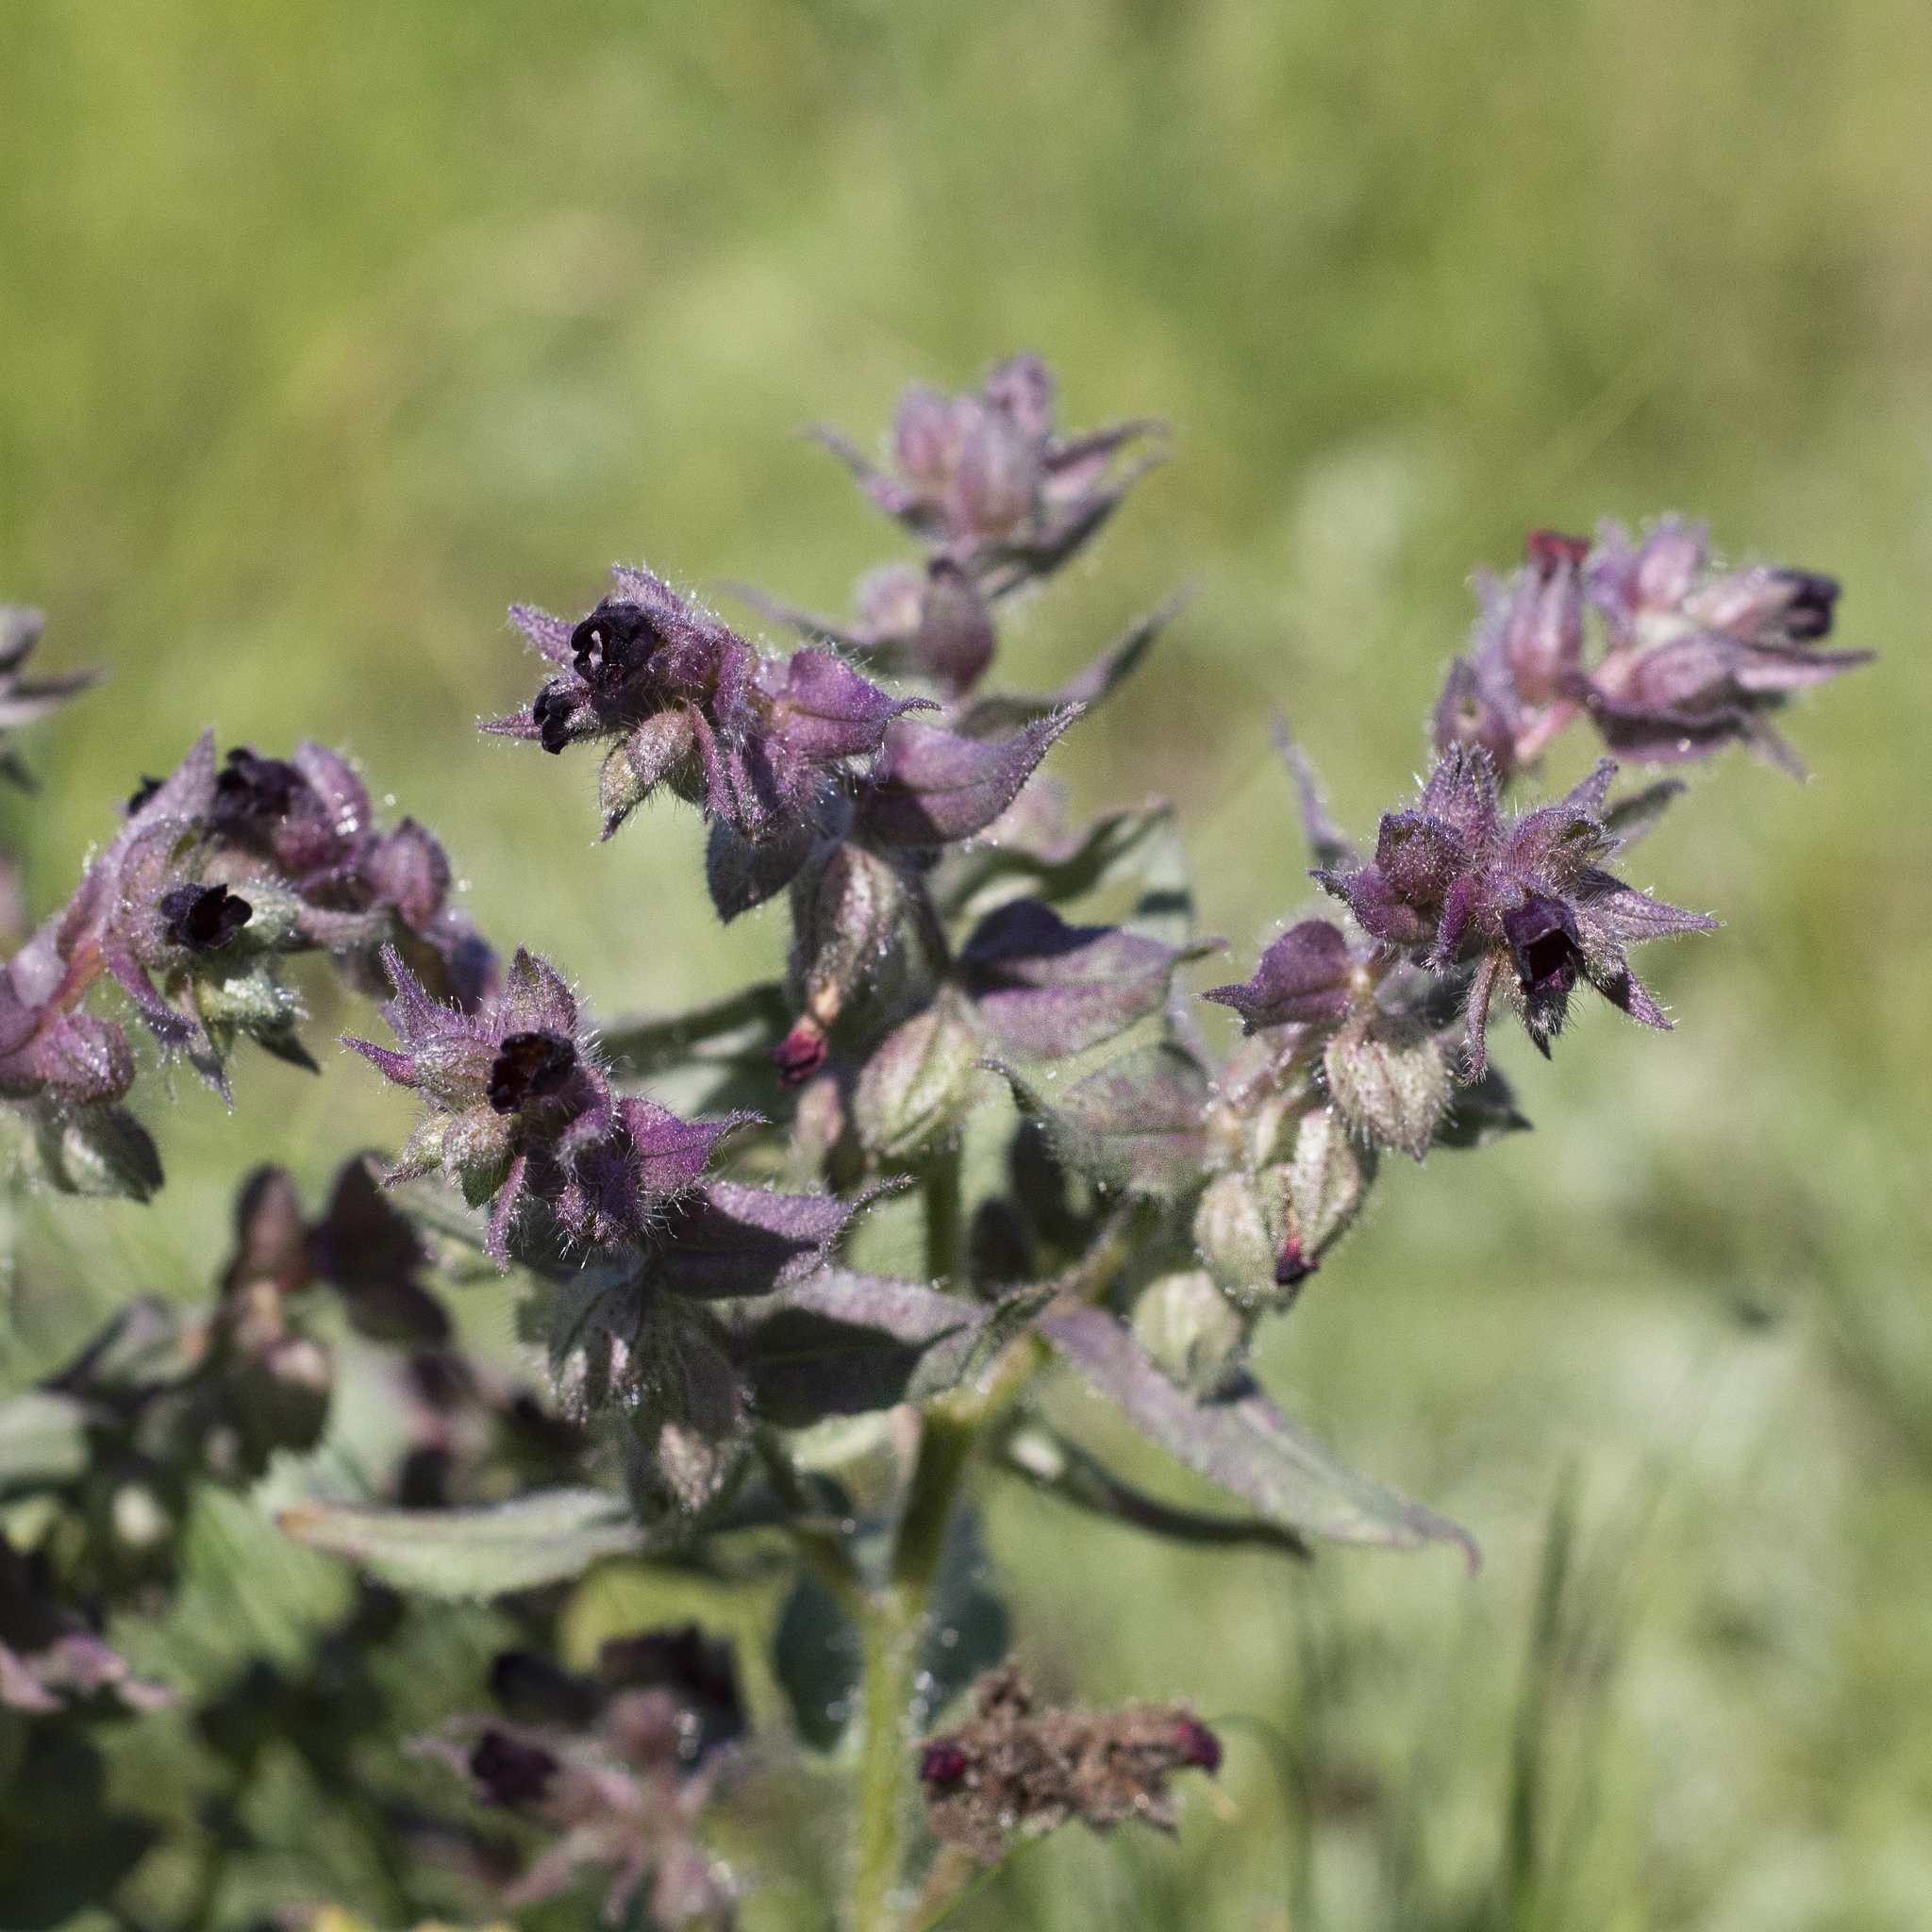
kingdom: Plantae
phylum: Tracheophyta
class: Magnoliopsida
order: Boraginales
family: Boraginaceae
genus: Nonea
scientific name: Nonea pulla
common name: Brown nonea
